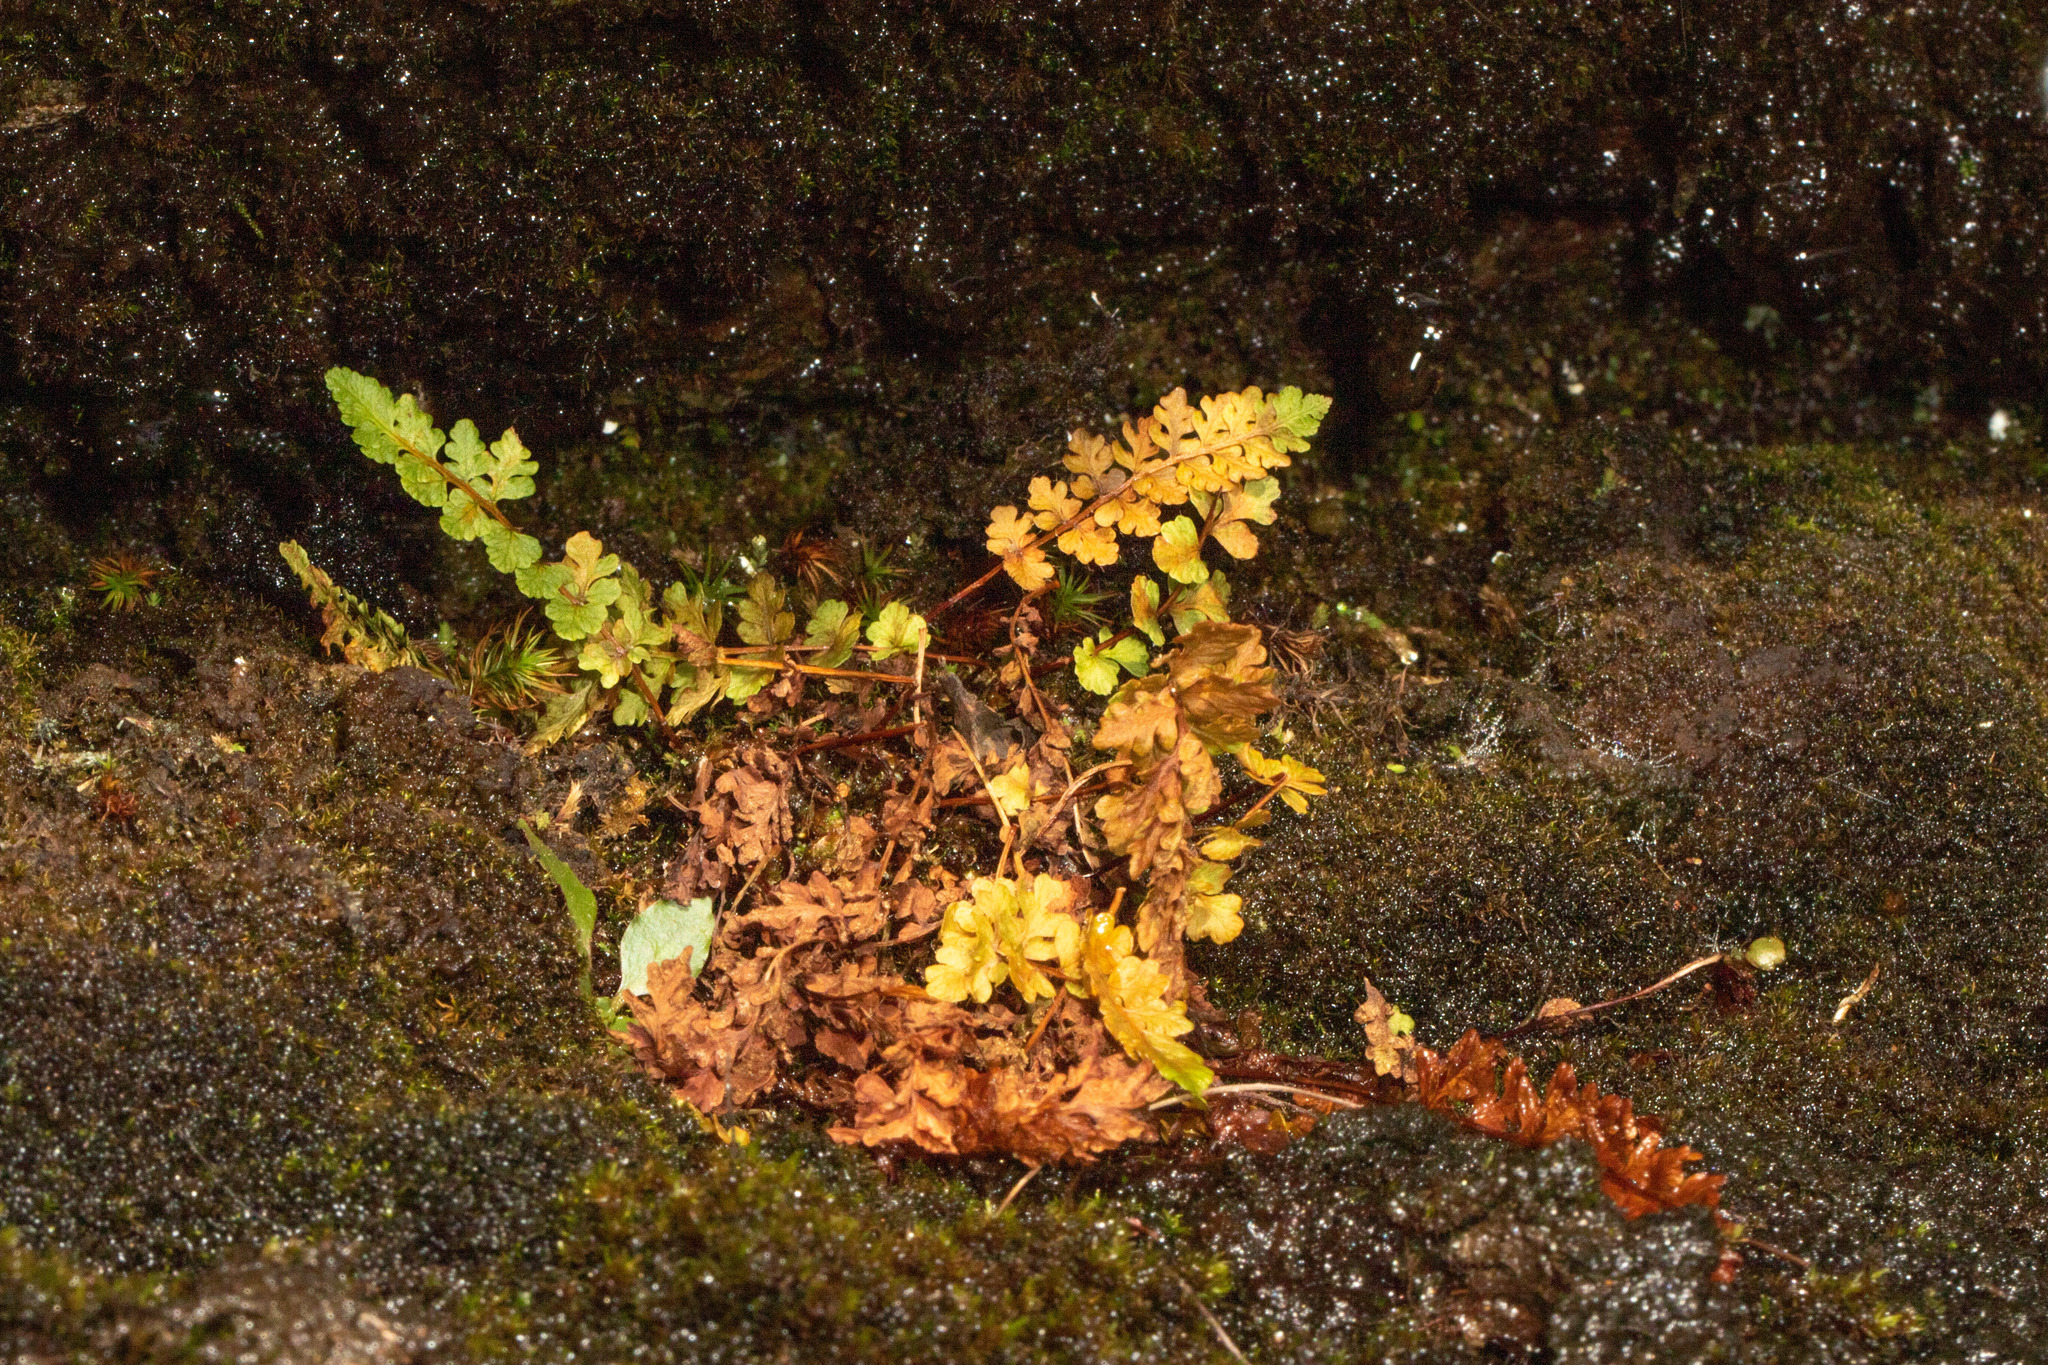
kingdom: Plantae
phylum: Tracheophyta
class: Polypodiopsida
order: Polypodiales
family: Woodsiaceae
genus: Woodsia
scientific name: Woodsia alpina
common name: Alpine woodsia
